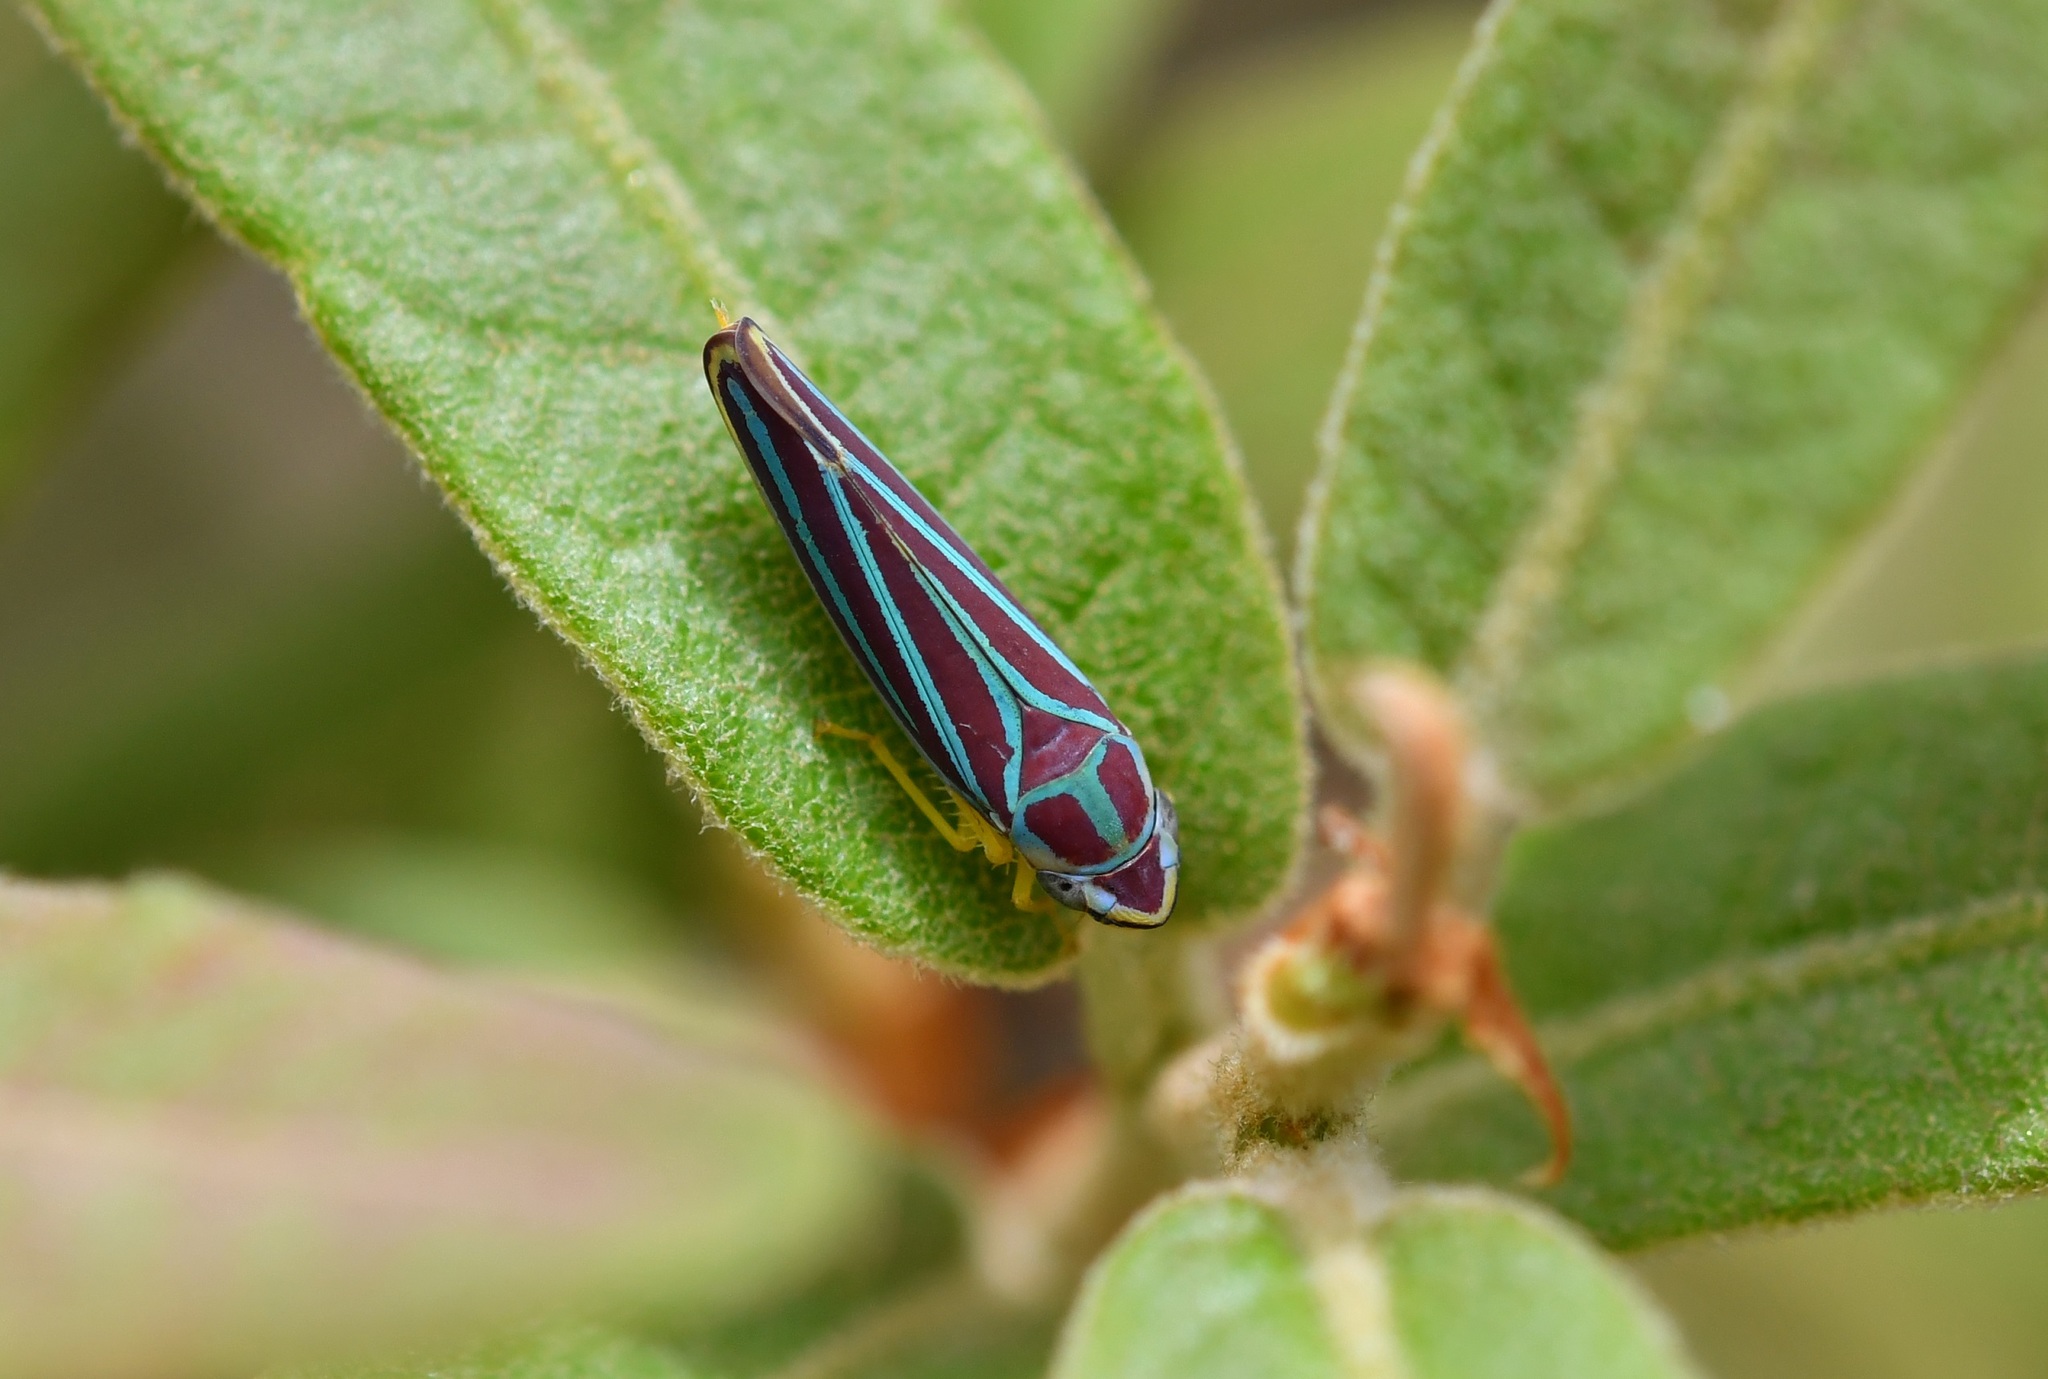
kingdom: Animalia
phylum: Arthropoda
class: Insecta
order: Hemiptera
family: Cicadellidae
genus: Graphocephala
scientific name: Graphocephala
